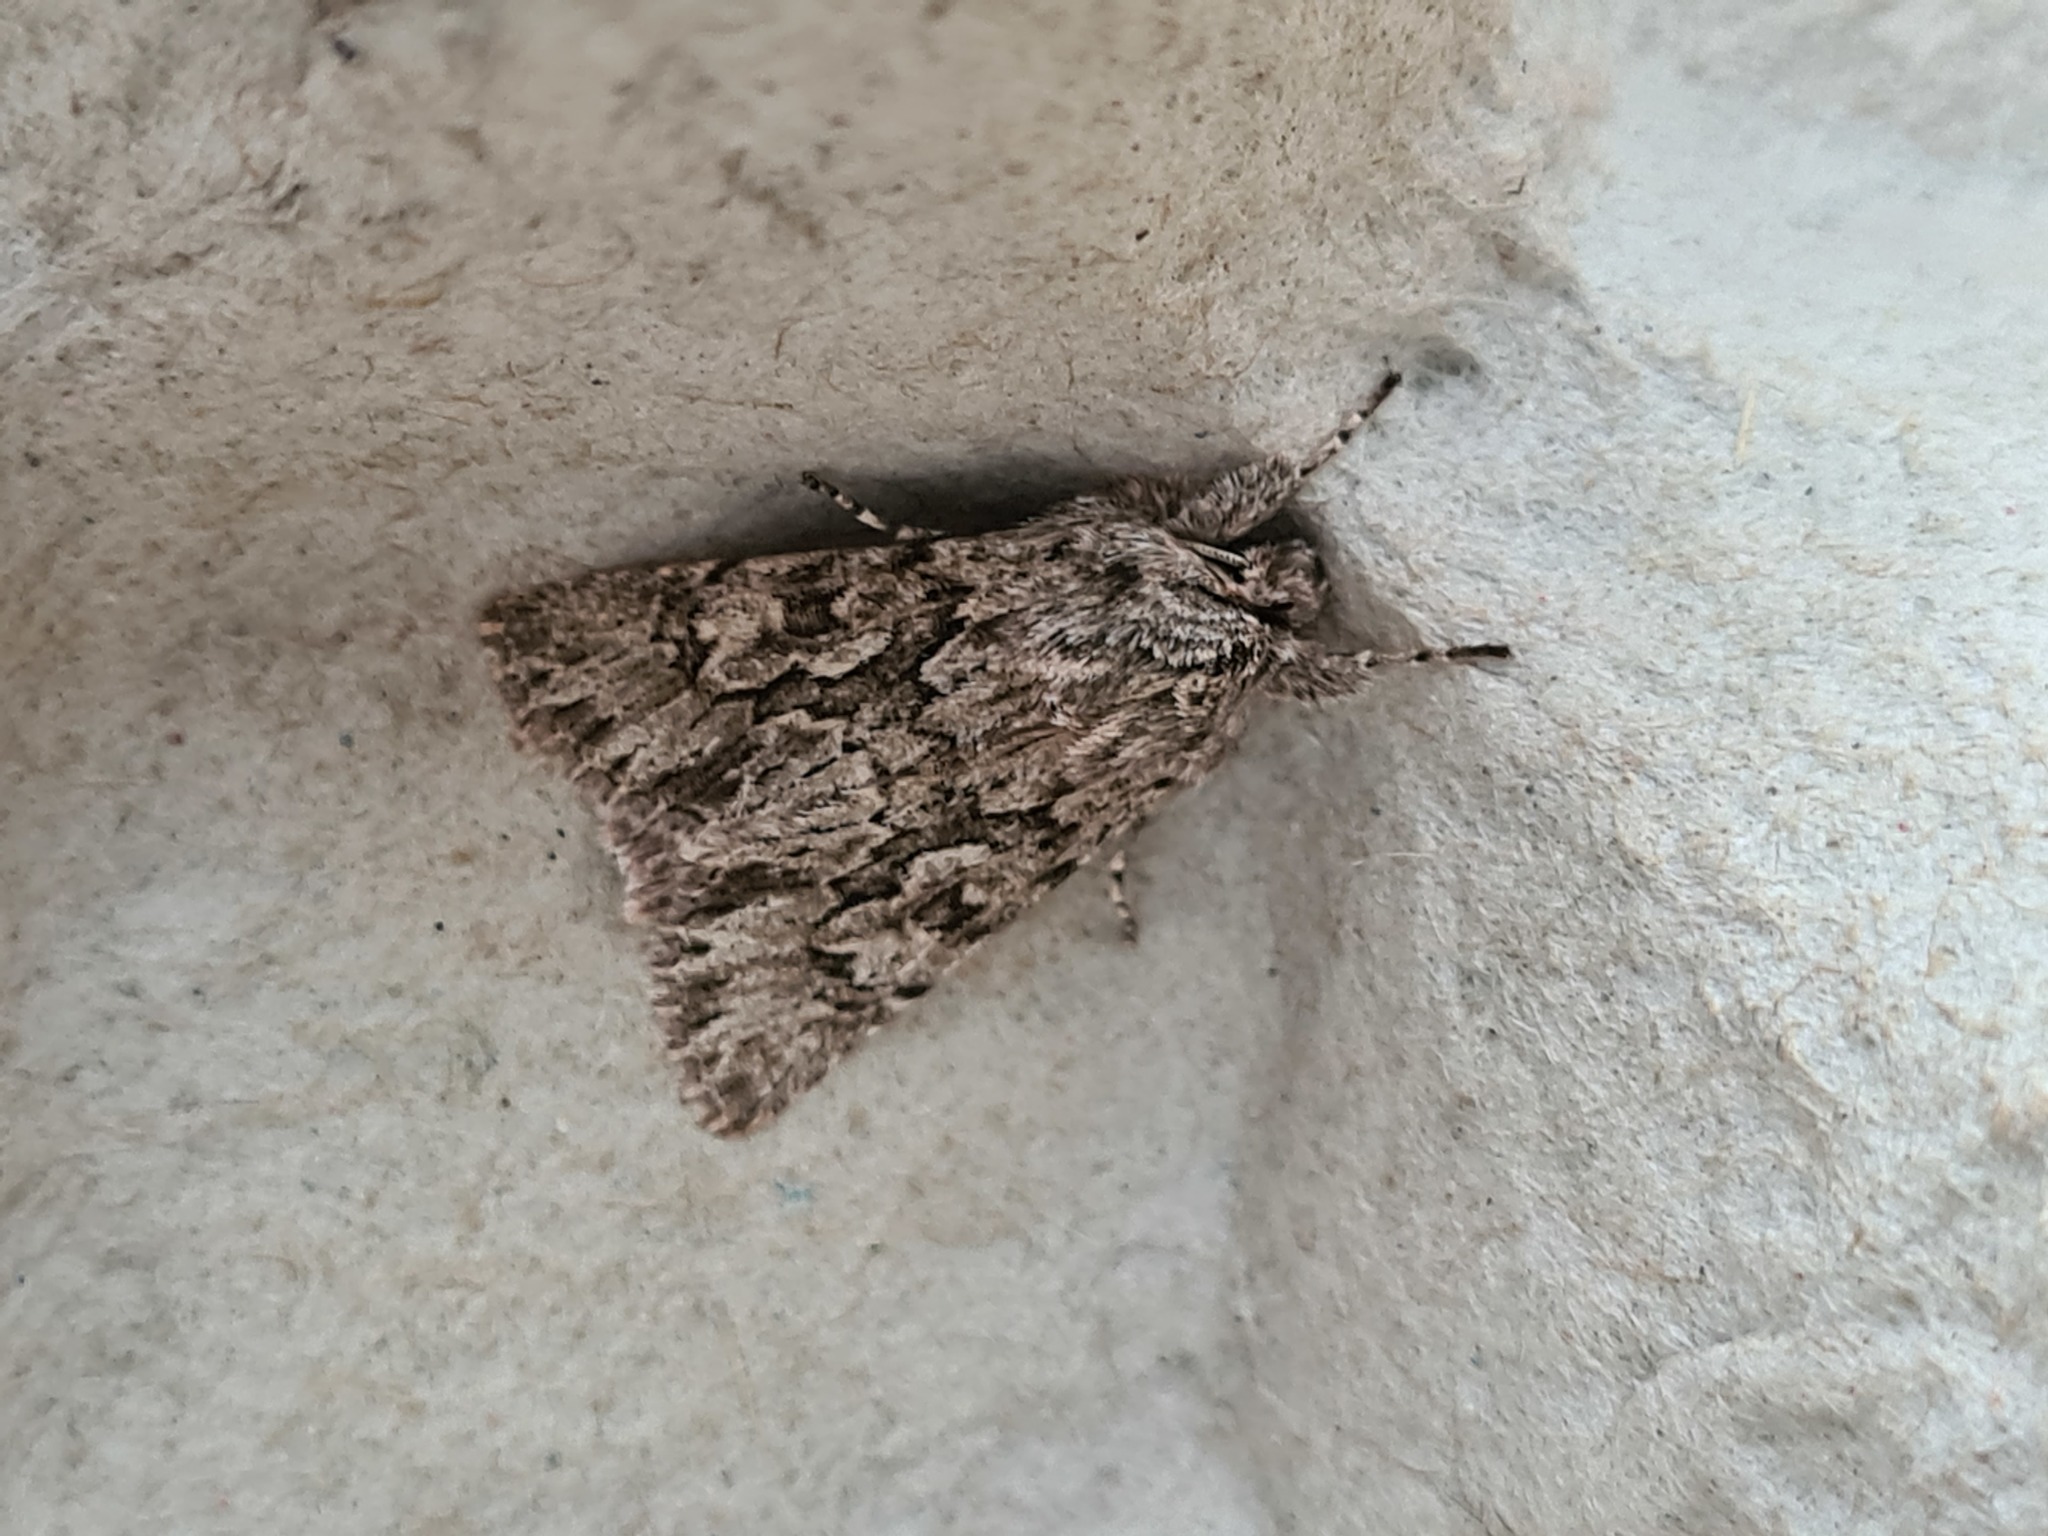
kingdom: Animalia
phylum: Arthropoda
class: Insecta
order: Lepidoptera
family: Noctuidae
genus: Xylocampa
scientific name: Xylocampa areola
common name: Early grey
